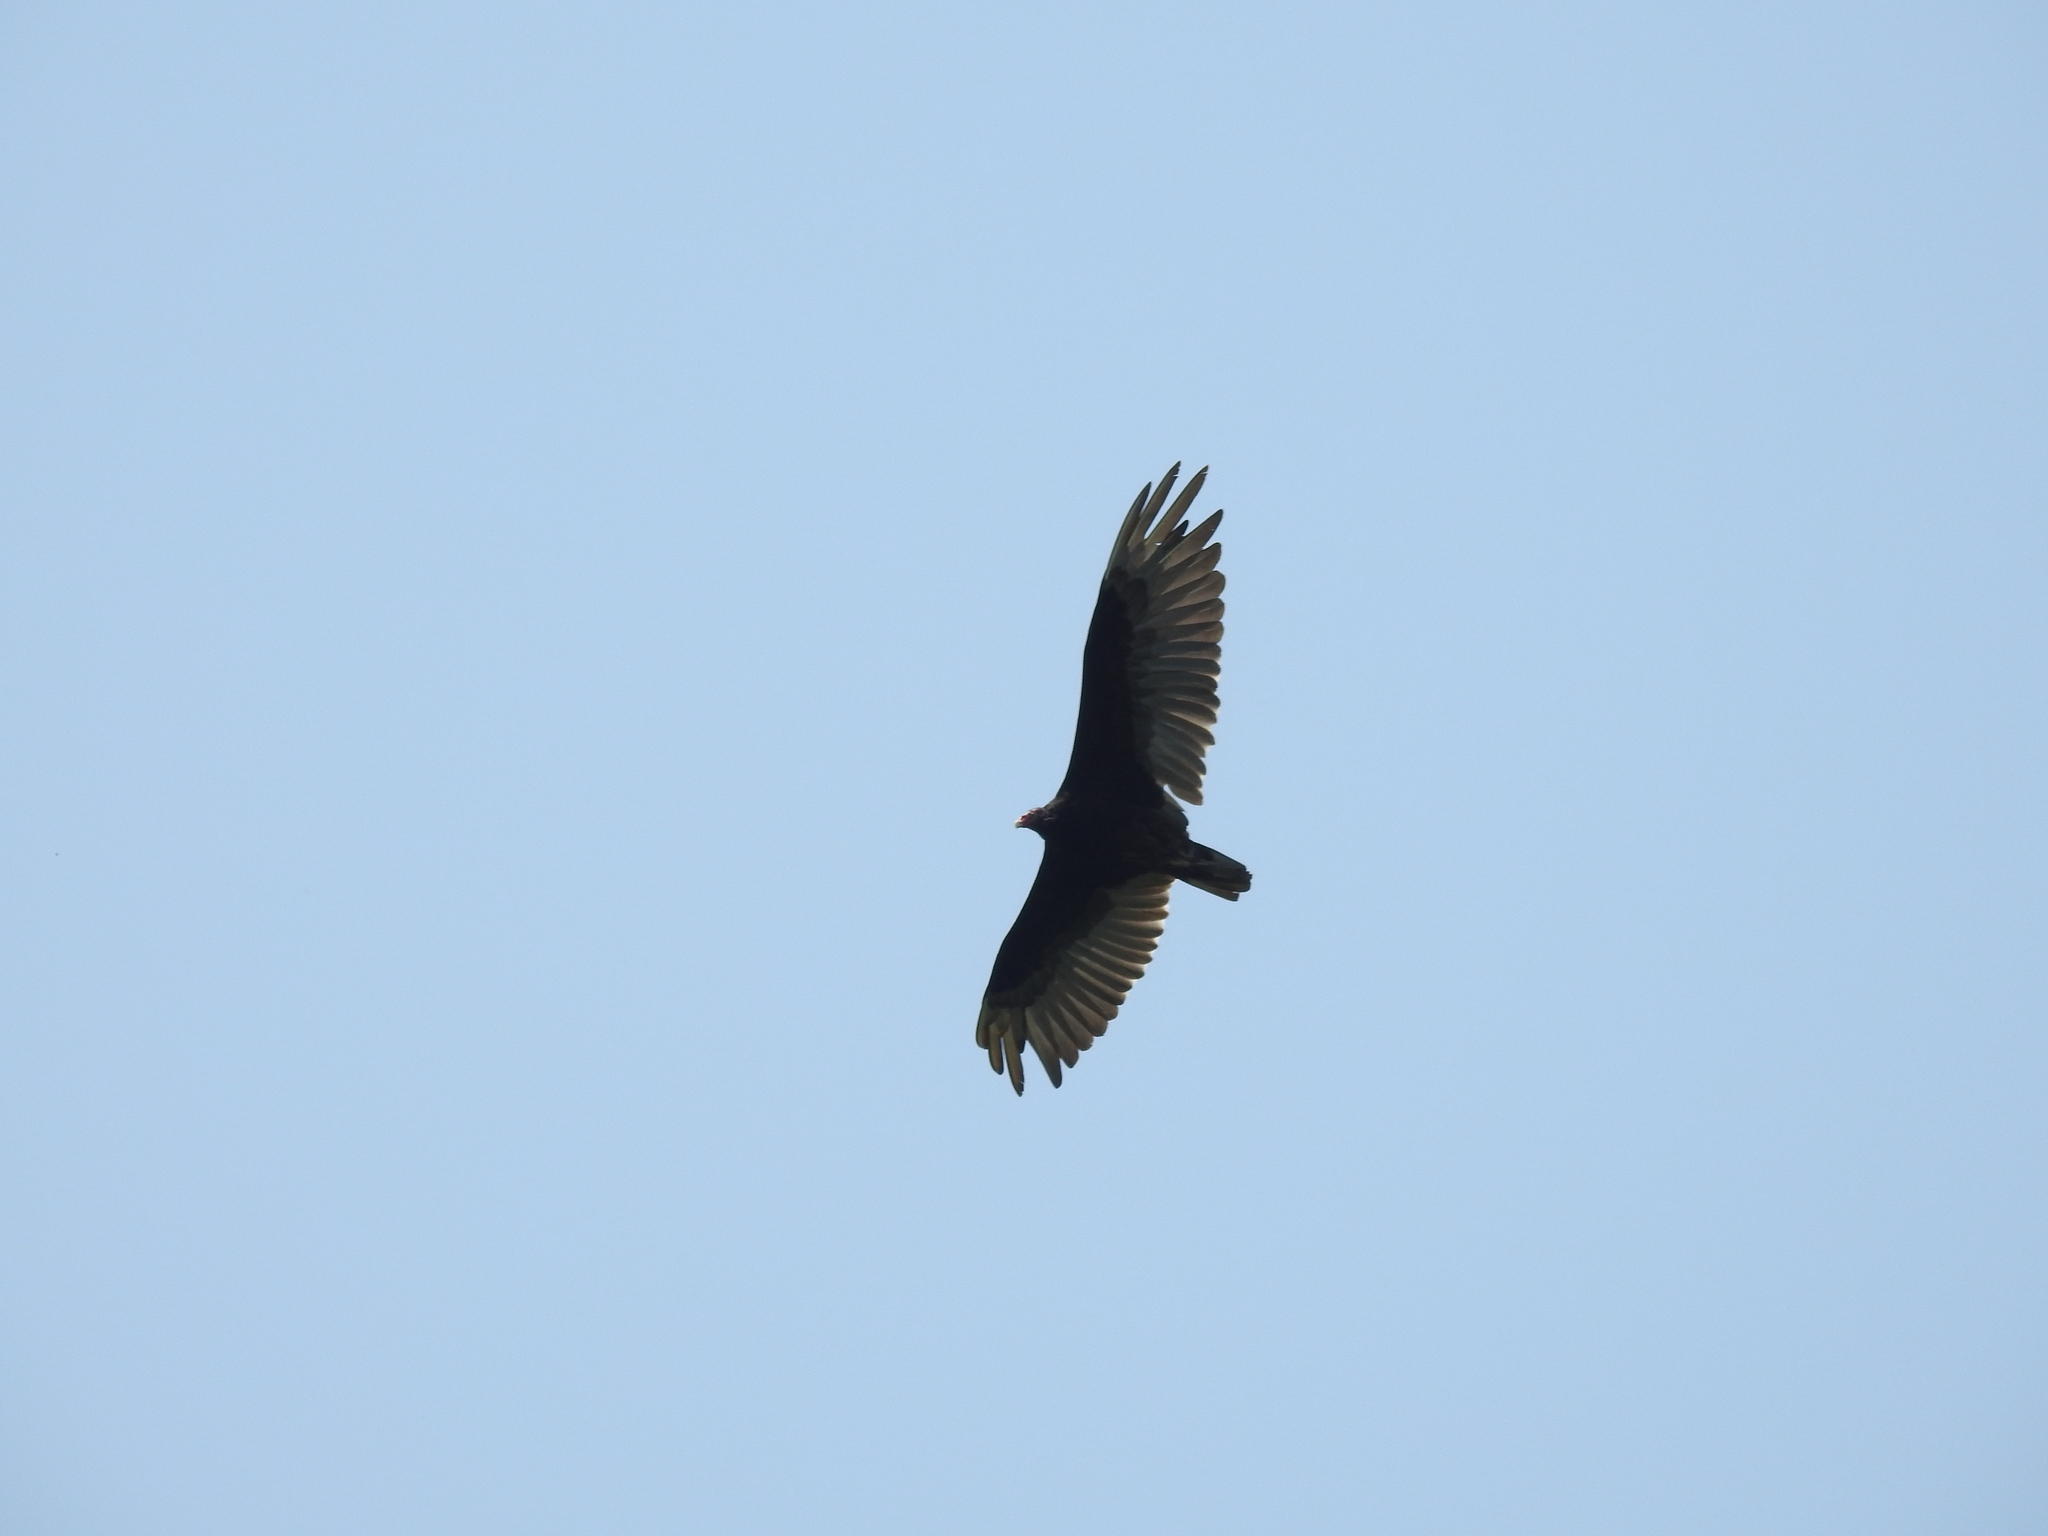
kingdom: Animalia
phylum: Chordata
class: Aves
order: Accipitriformes
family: Cathartidae
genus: Cathartes
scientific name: Cathartes aura
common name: Turkey vulture
